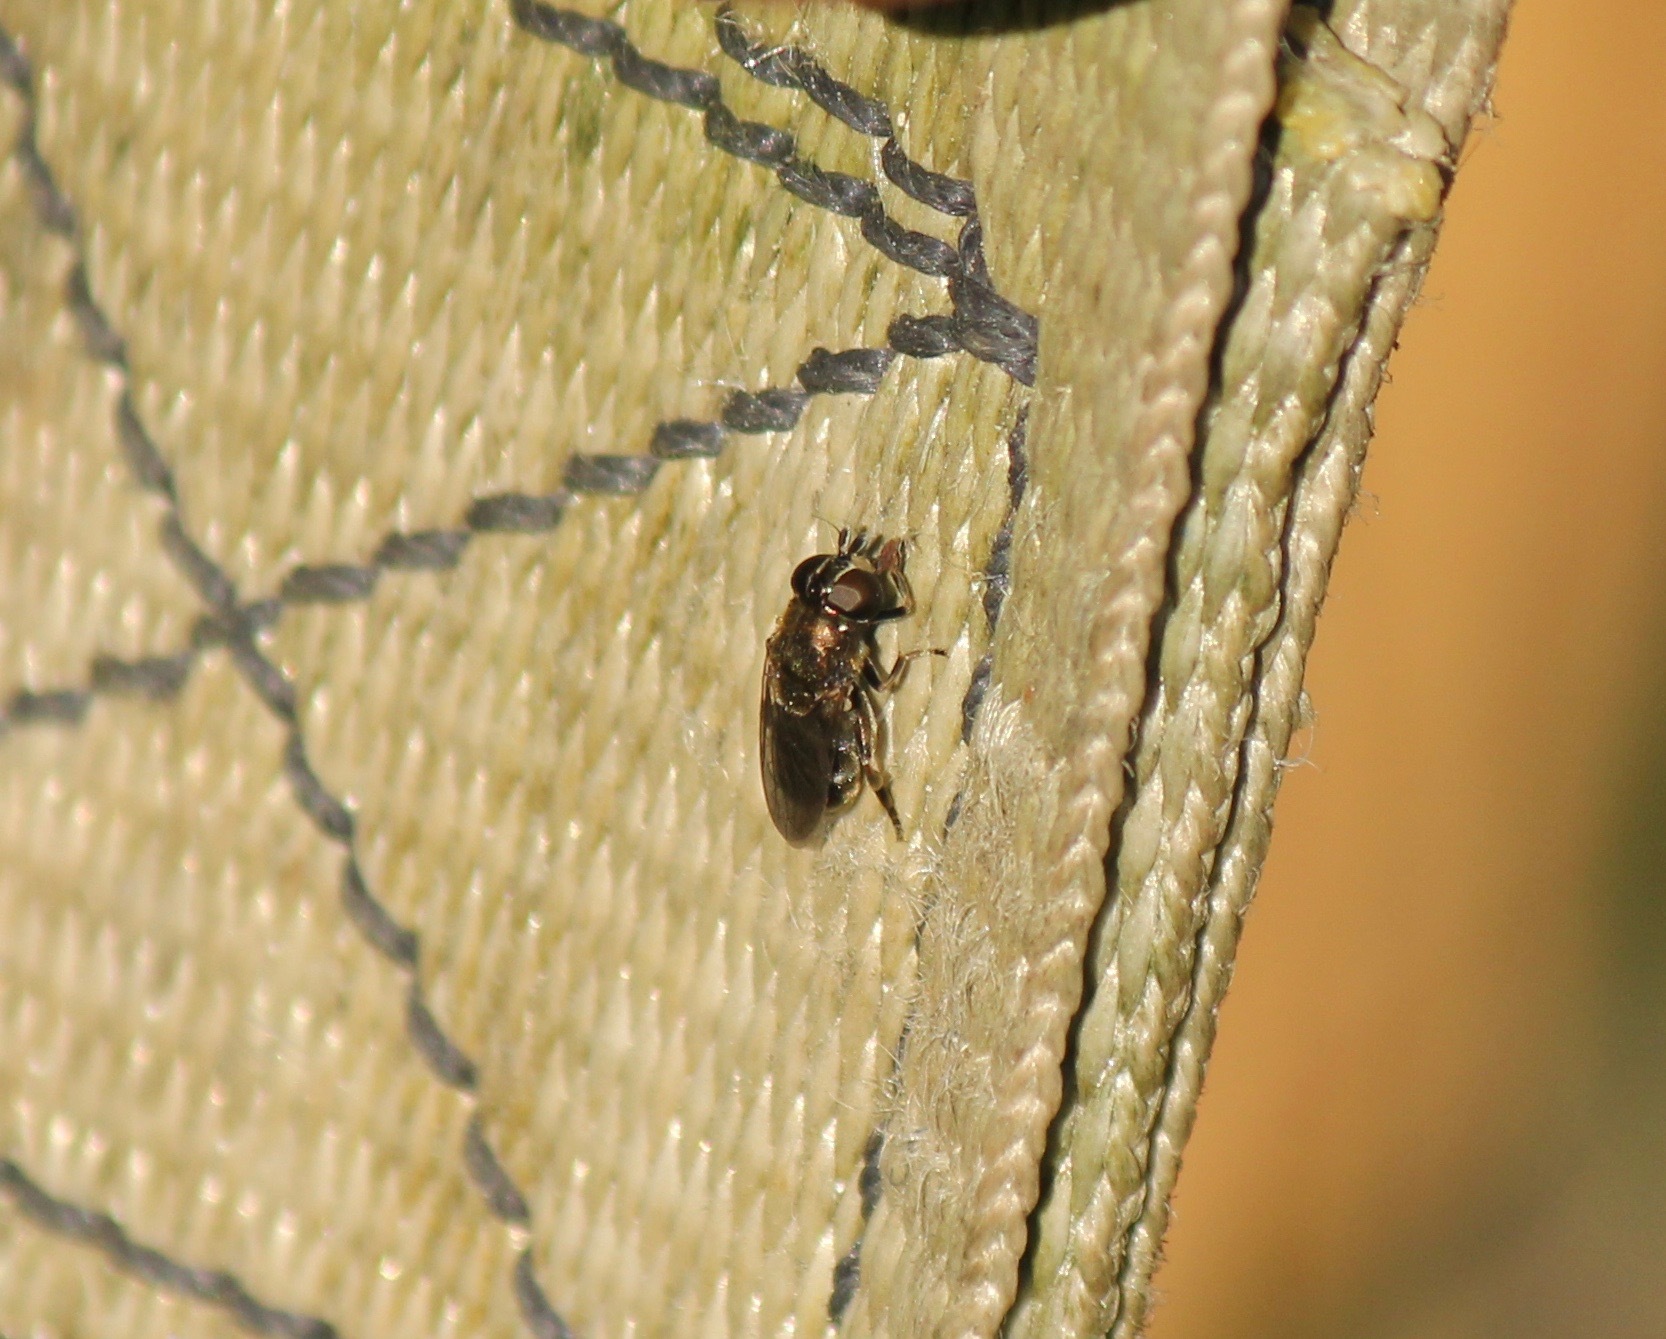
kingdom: Animalia
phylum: Arthropoda
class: Insecta
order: Diptera
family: Syrphidae
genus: Eumerus
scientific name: Eumerus
